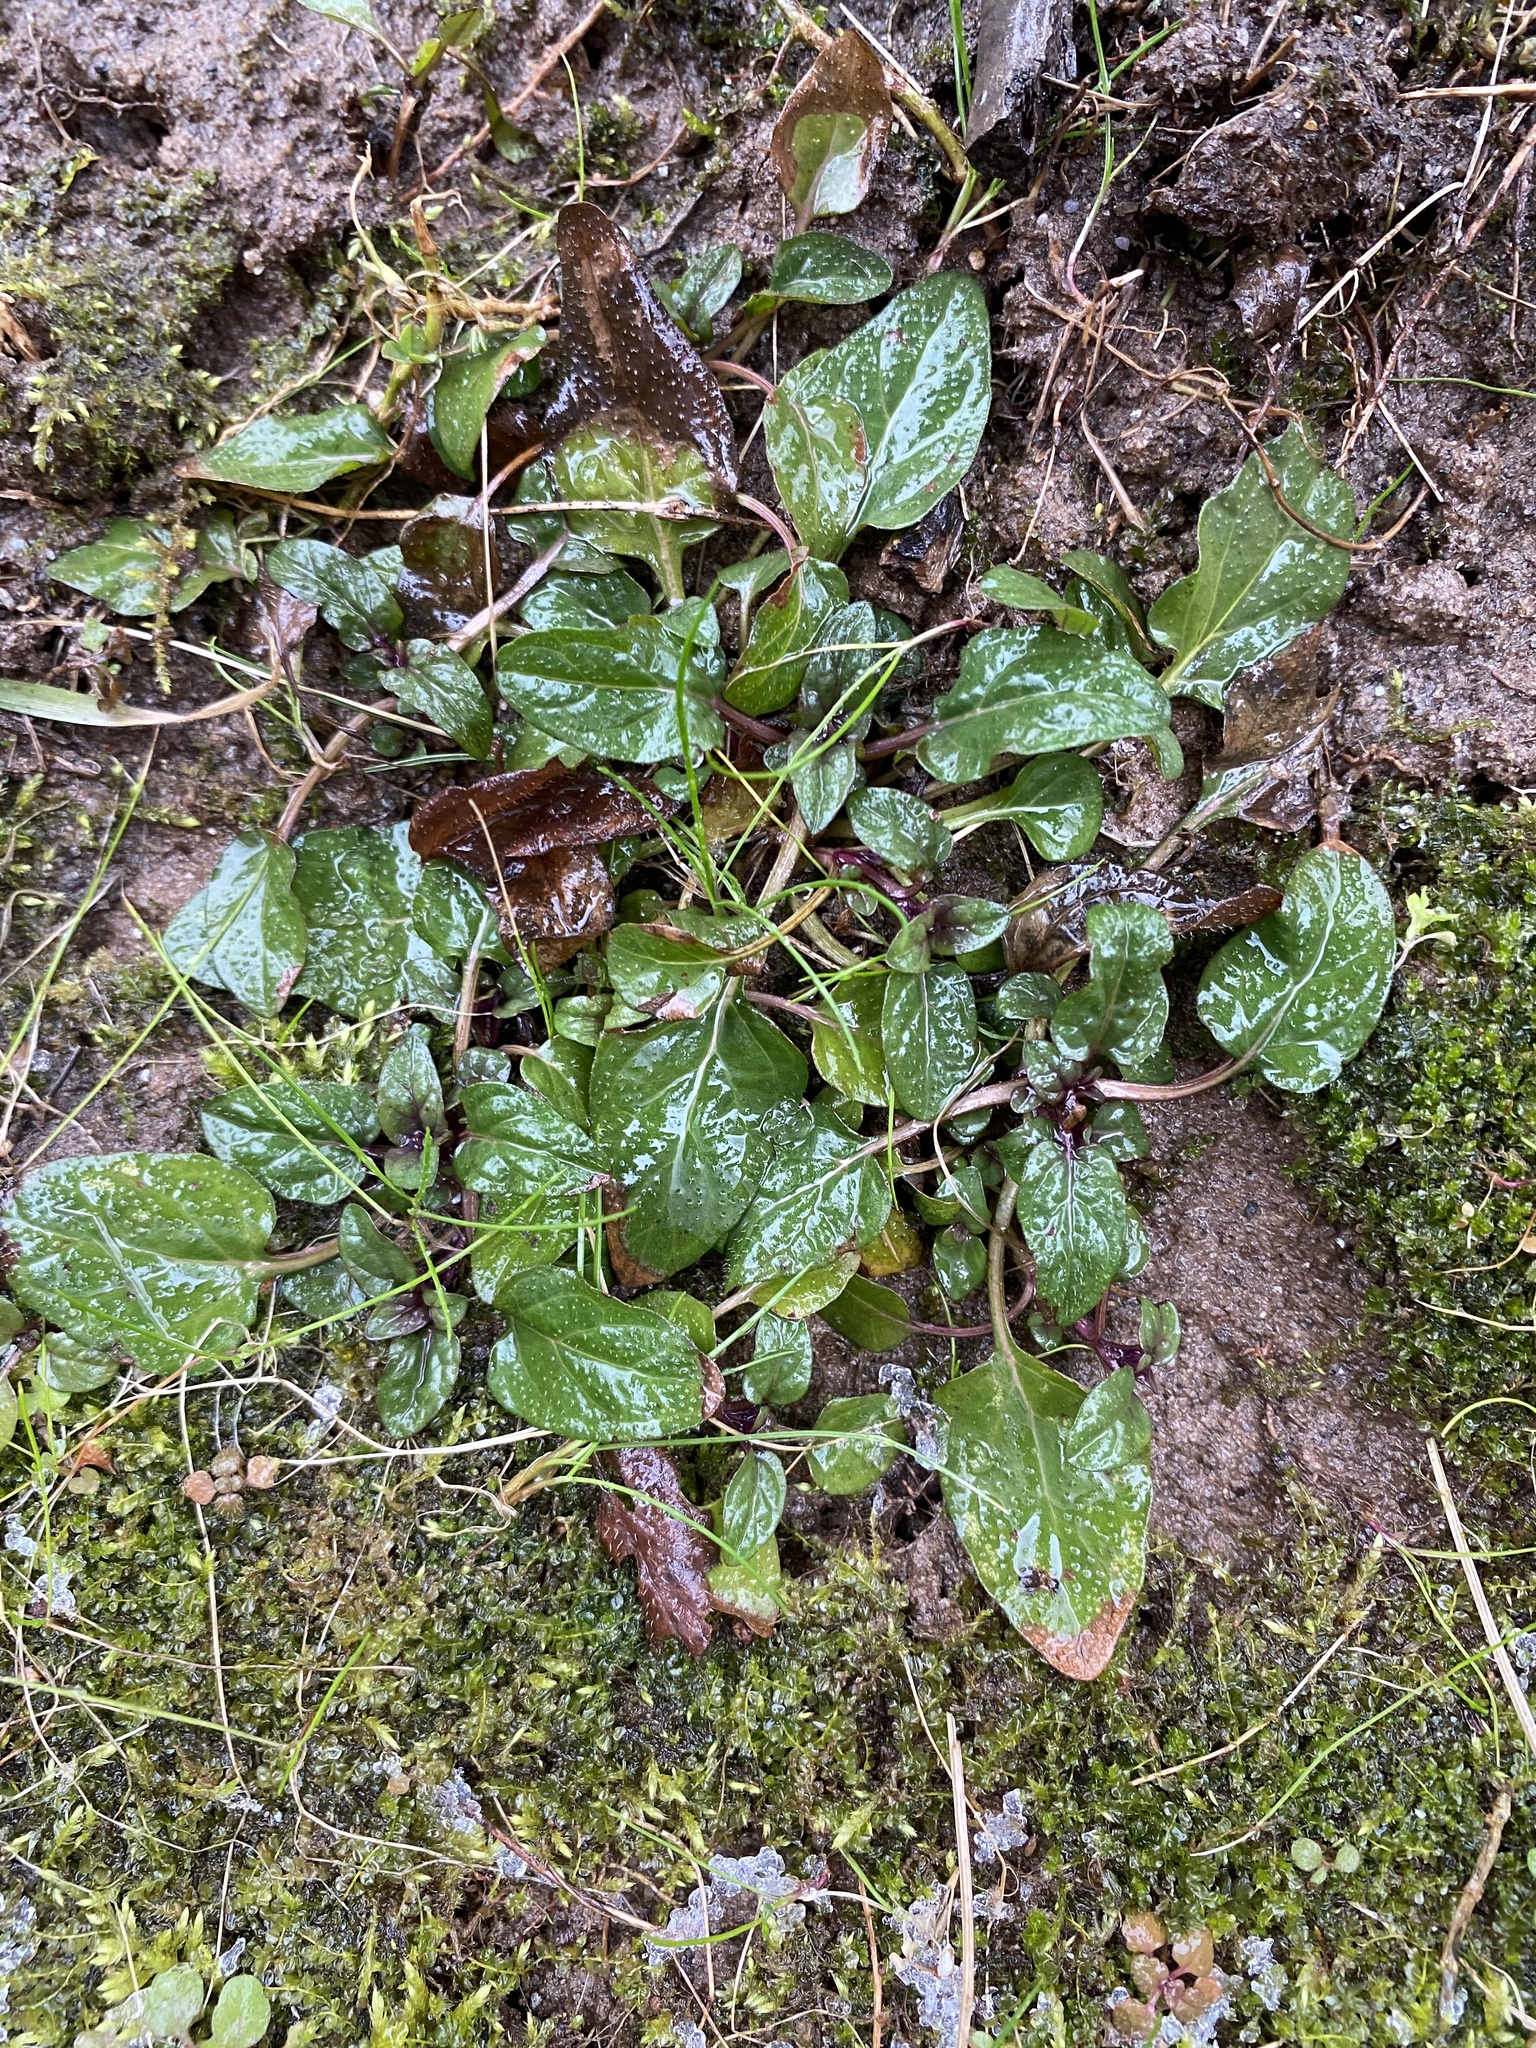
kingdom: Plantae
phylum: Tracheophyta
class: Magnoliopsida
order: Lamiales
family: Lamiaceae
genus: Prunella
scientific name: Prunella vulgaris
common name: Heal-all
